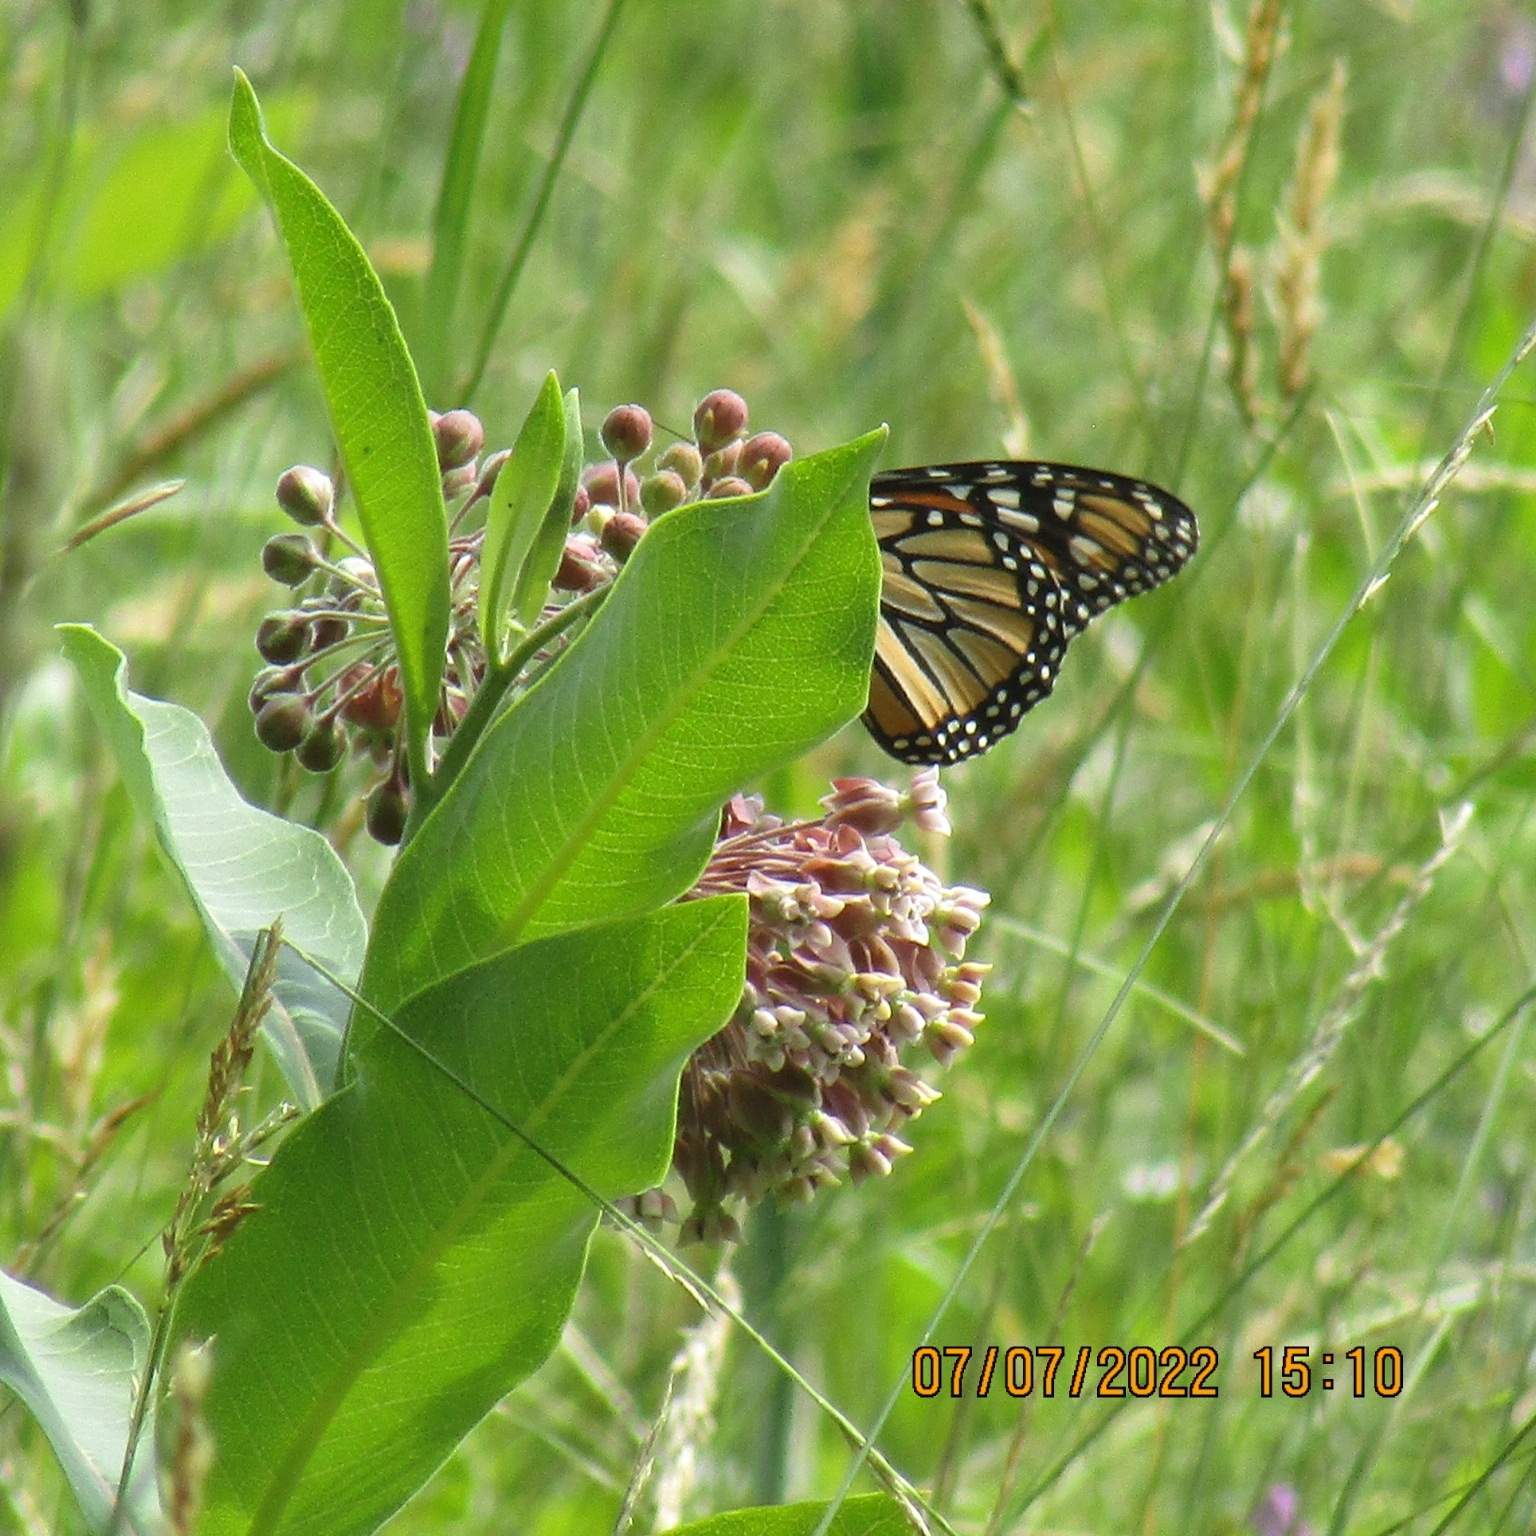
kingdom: Plantae
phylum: Tracheophyta
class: Magnoliopsida
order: Gentianales
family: Apocynaceae
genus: Asclepias
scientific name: Asclepias syriaca
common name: Common milkweed
